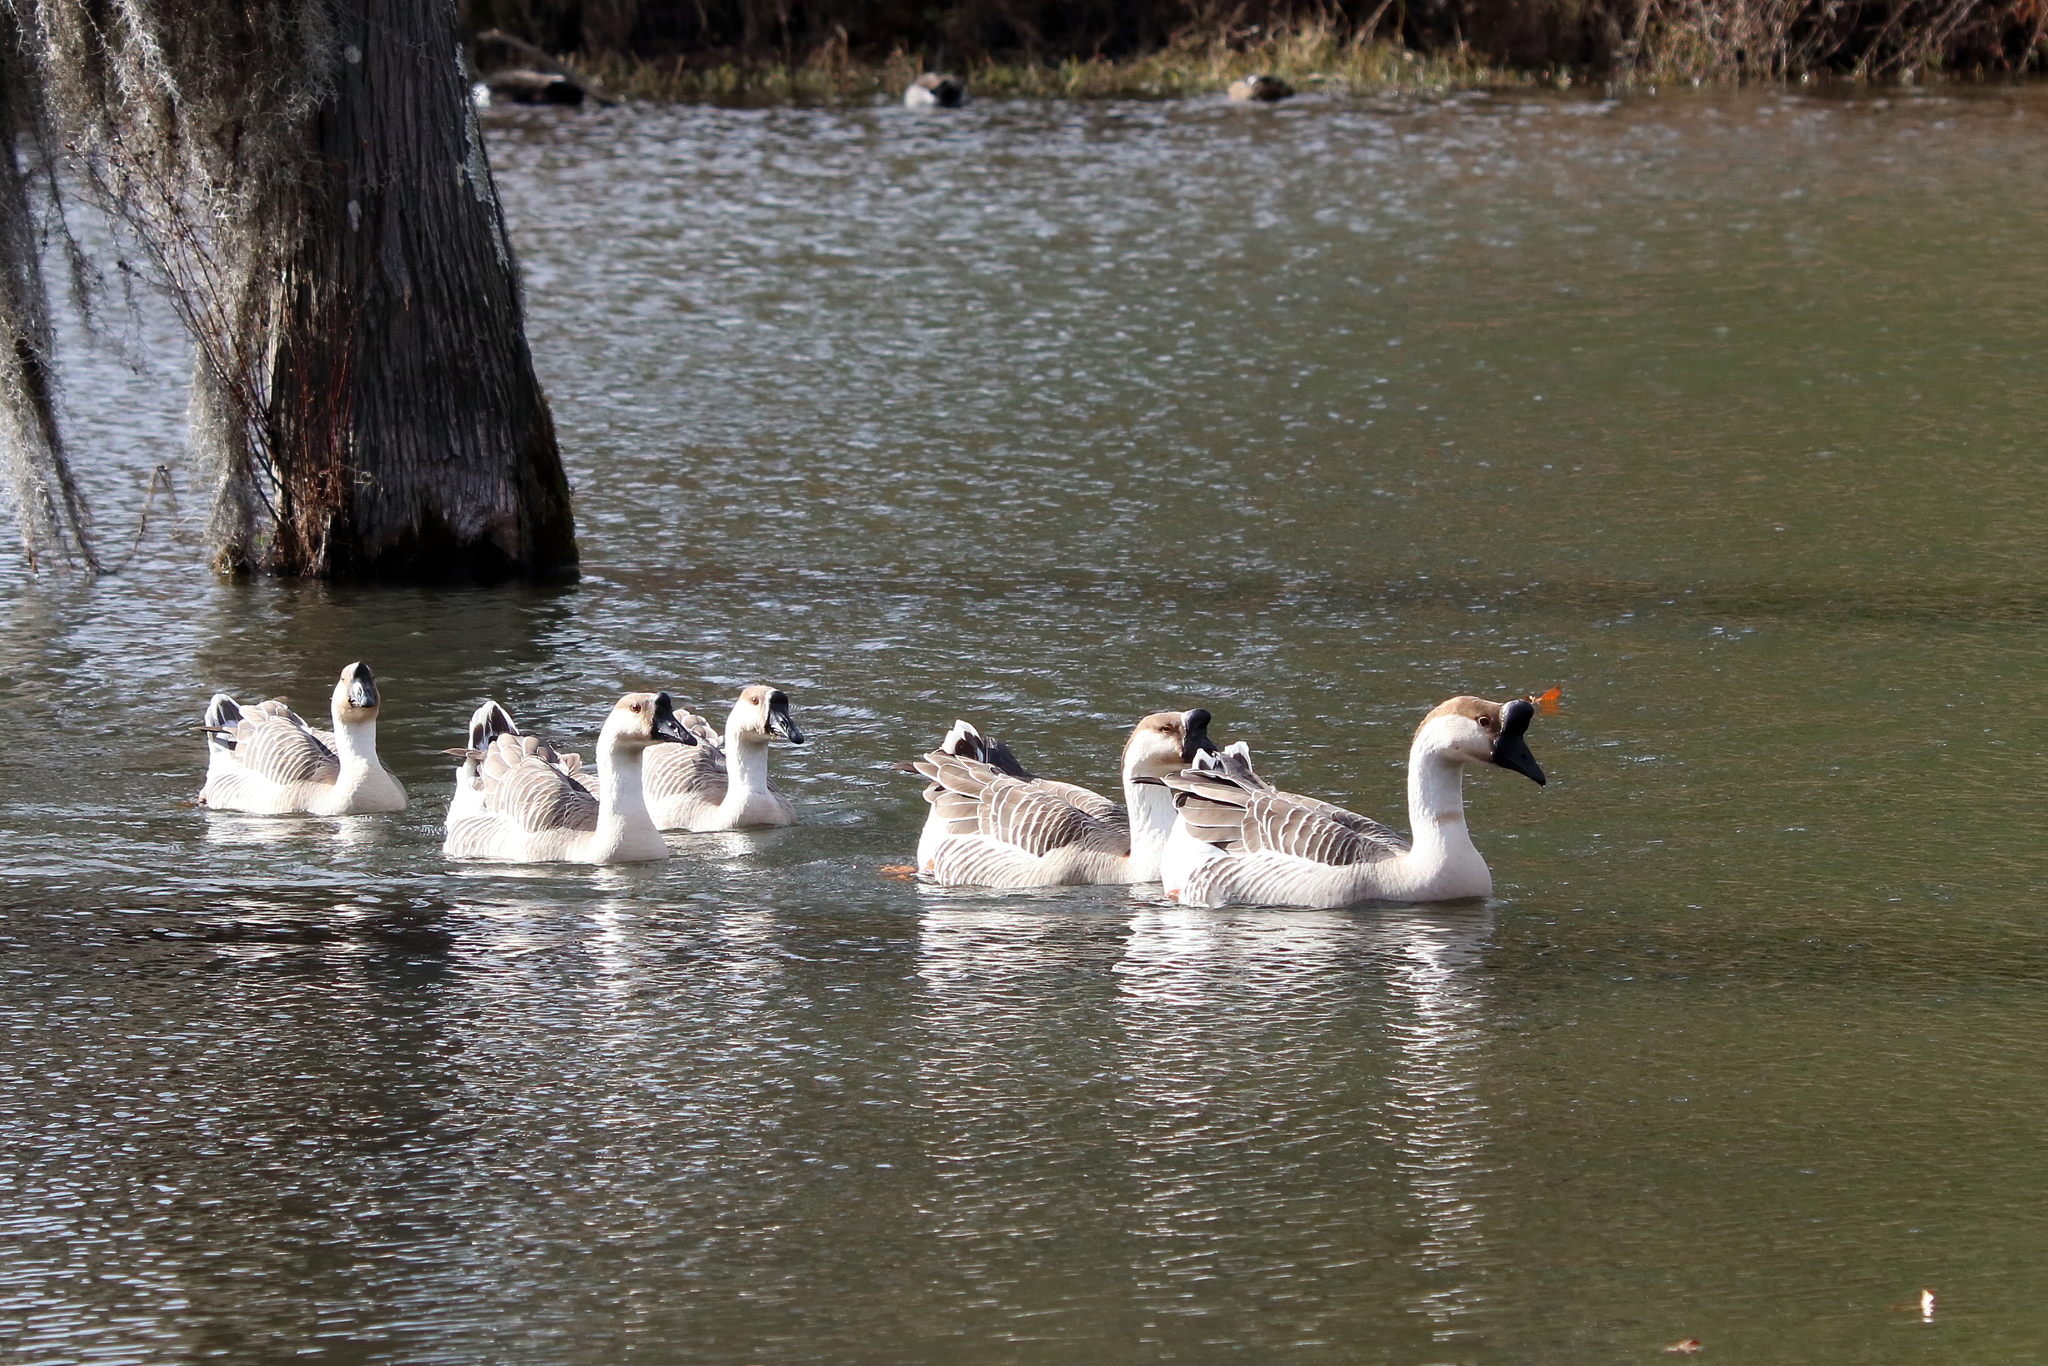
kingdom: Animalia
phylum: Chordata
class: Aves
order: Anseriformes
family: Anatidae
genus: Anser
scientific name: Anser cygnoides
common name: Swan goose
